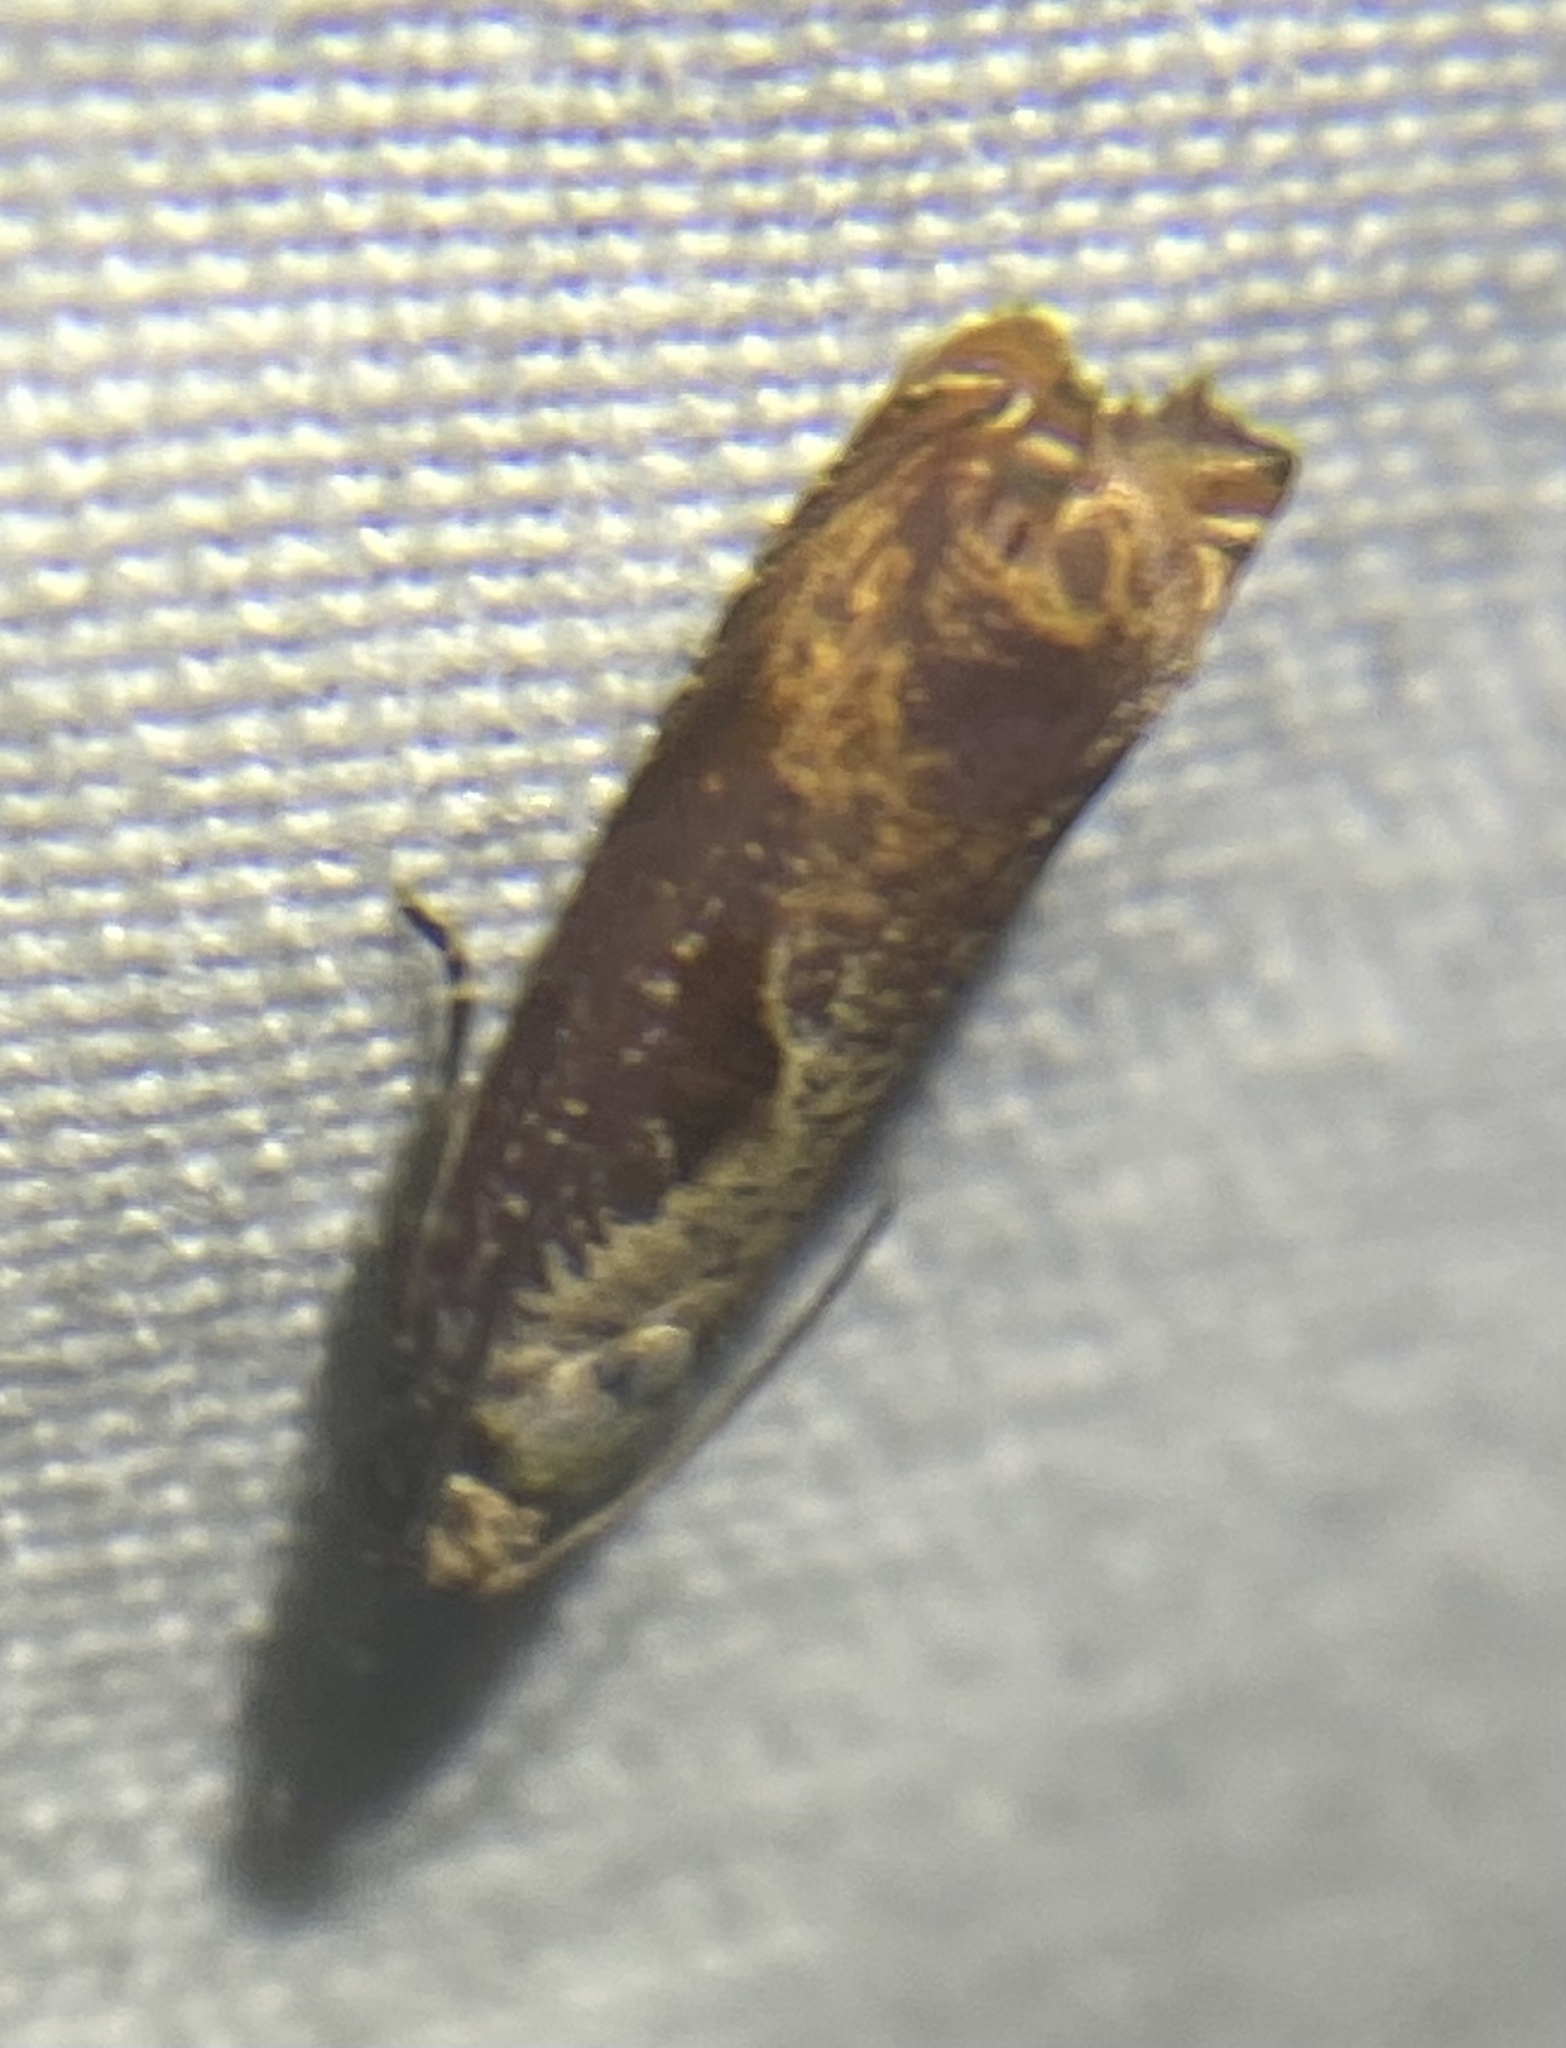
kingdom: Animalia
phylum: Arthropoda
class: Insecta
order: Lepidoptera
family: Tortricidae
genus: Episimus
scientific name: Episimus tyrius
